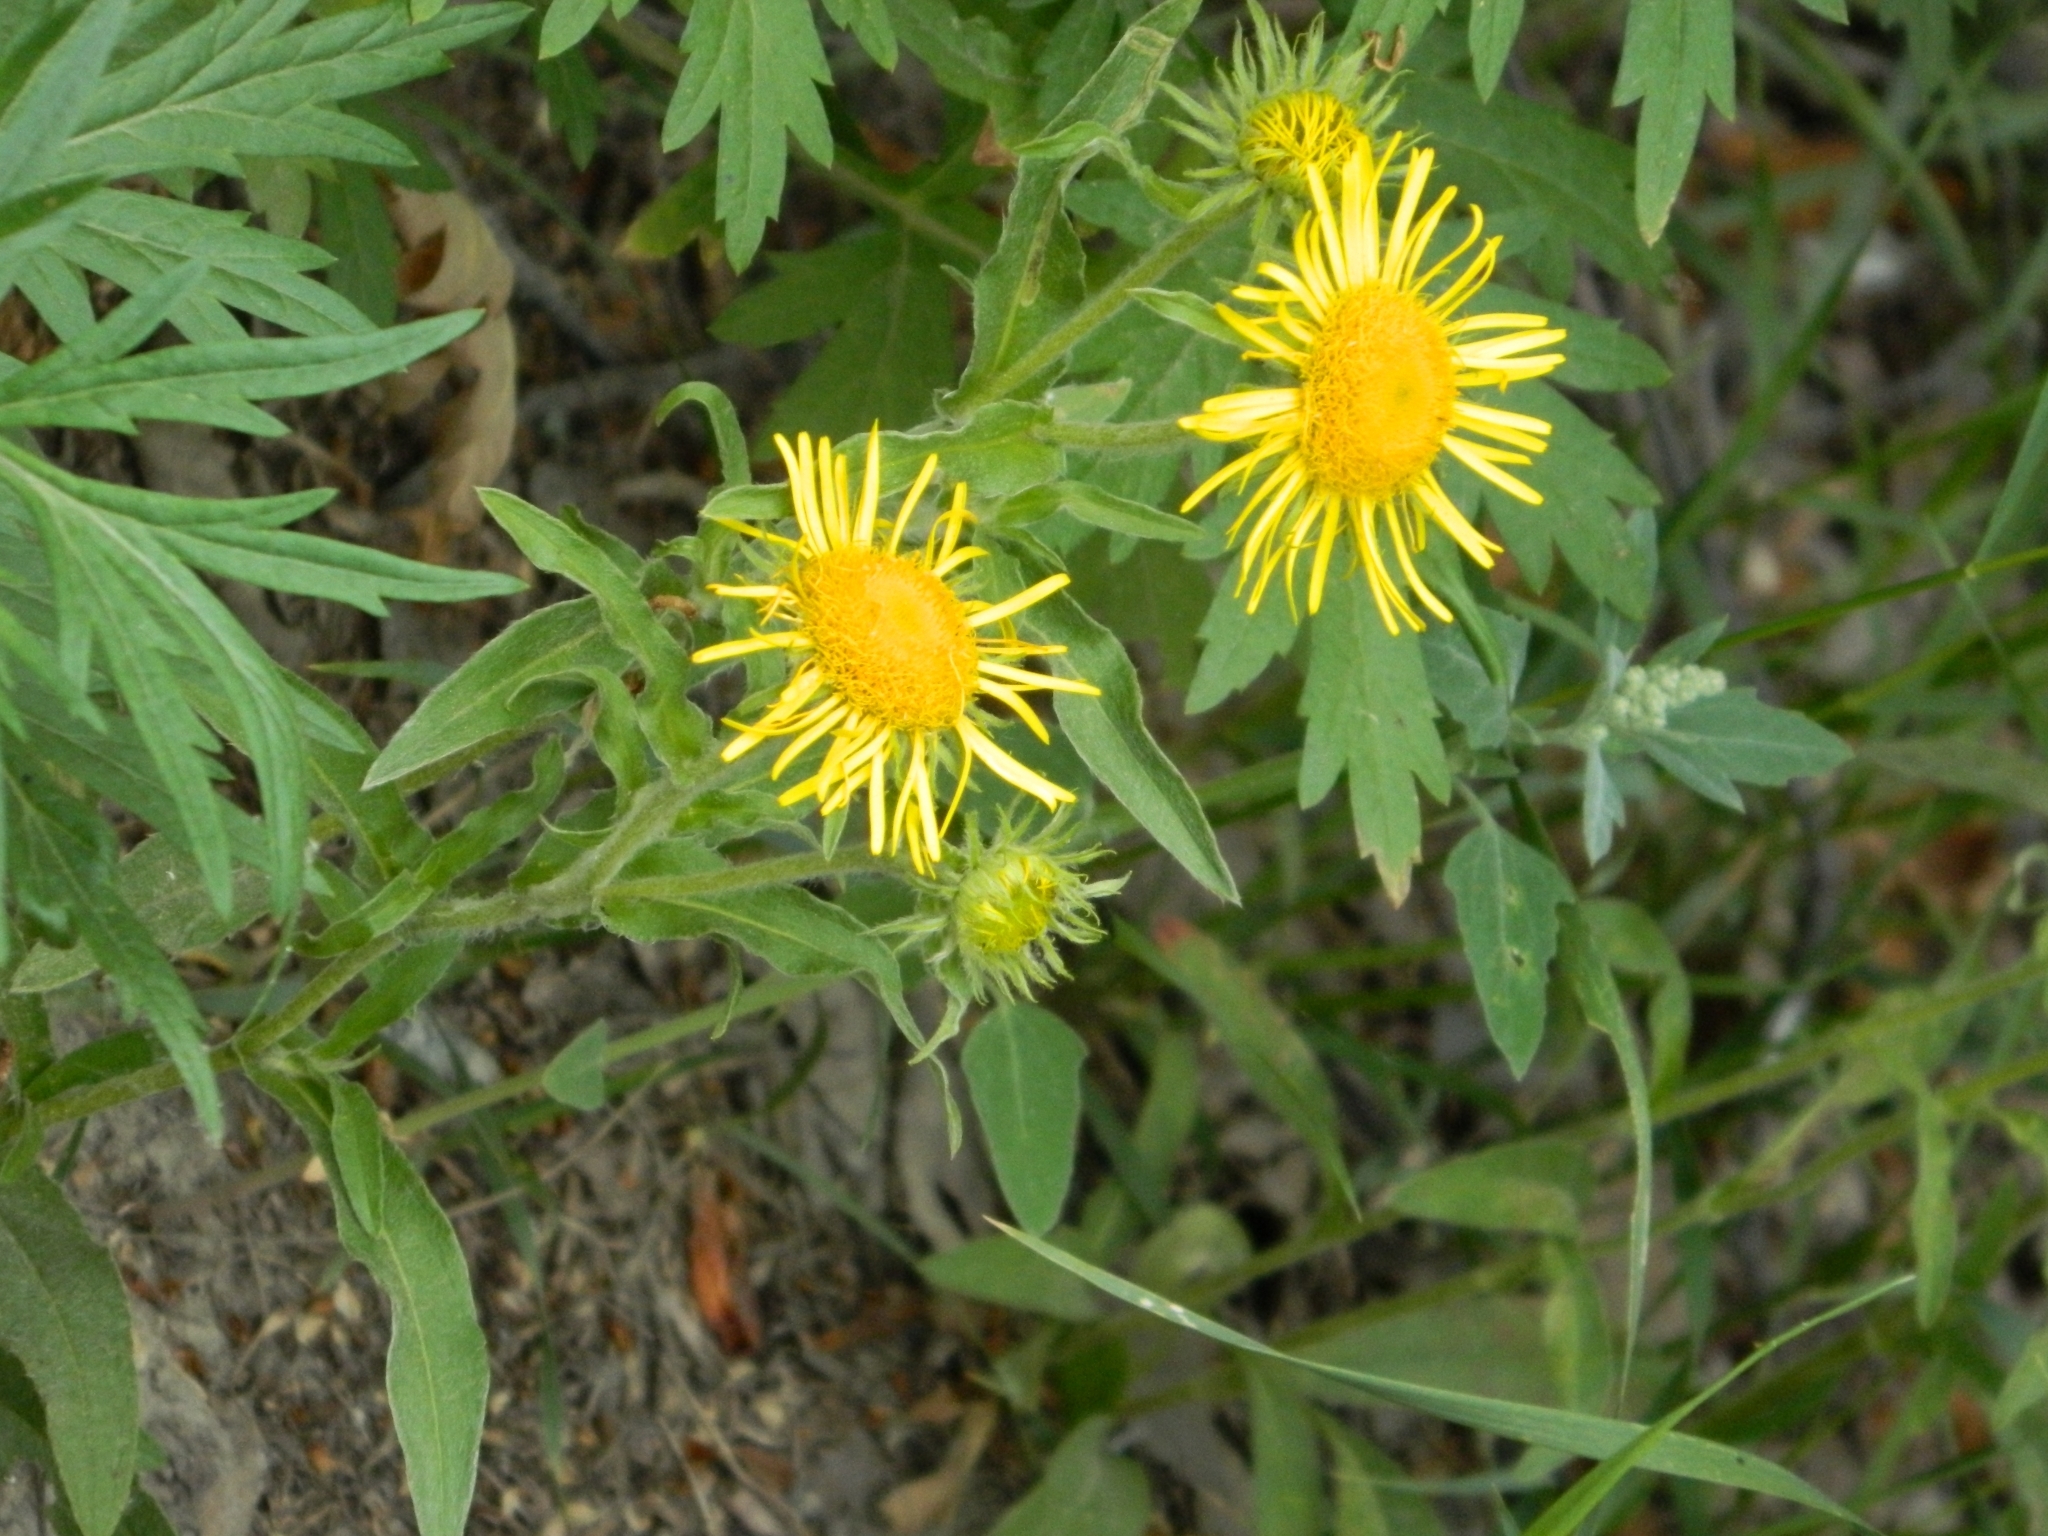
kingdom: Plantae
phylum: Tracheophyta
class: Magnoliopsida
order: Asterales
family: Asteraceae
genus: Pentanema
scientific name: Pentanema britannicum
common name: British elecampane
